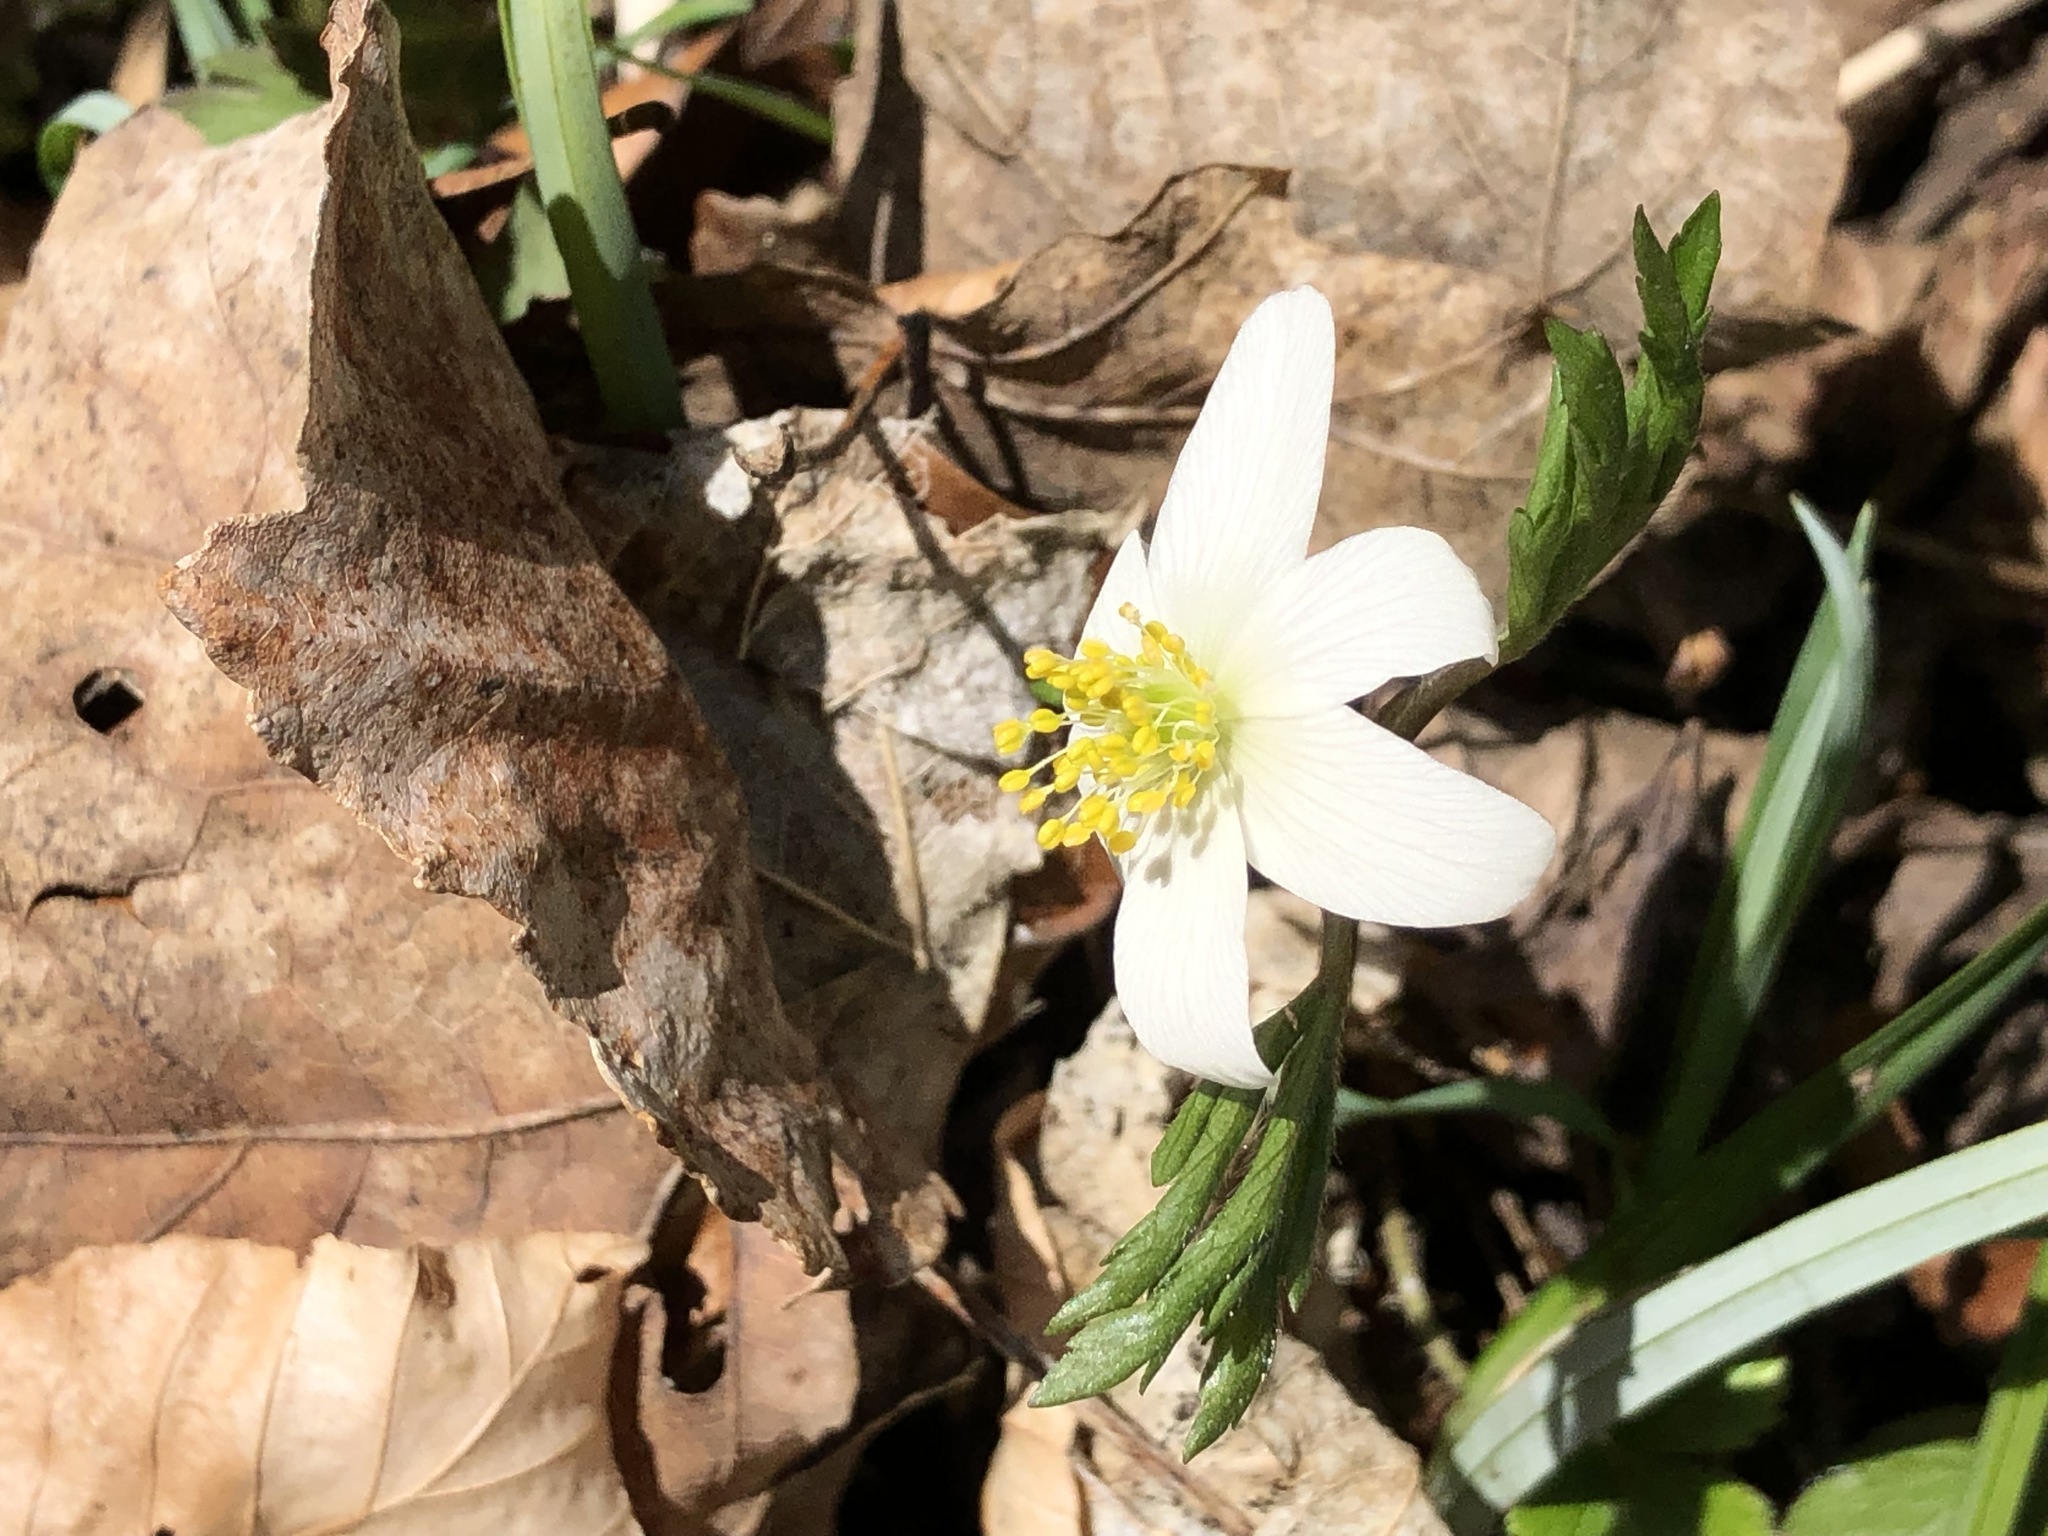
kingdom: Plantae
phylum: Tracheophyta
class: Magnoliopsida
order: Ranunculales
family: Ranunculaceae
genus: Anemone
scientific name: Anemone nemorosa
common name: Wood anemone
